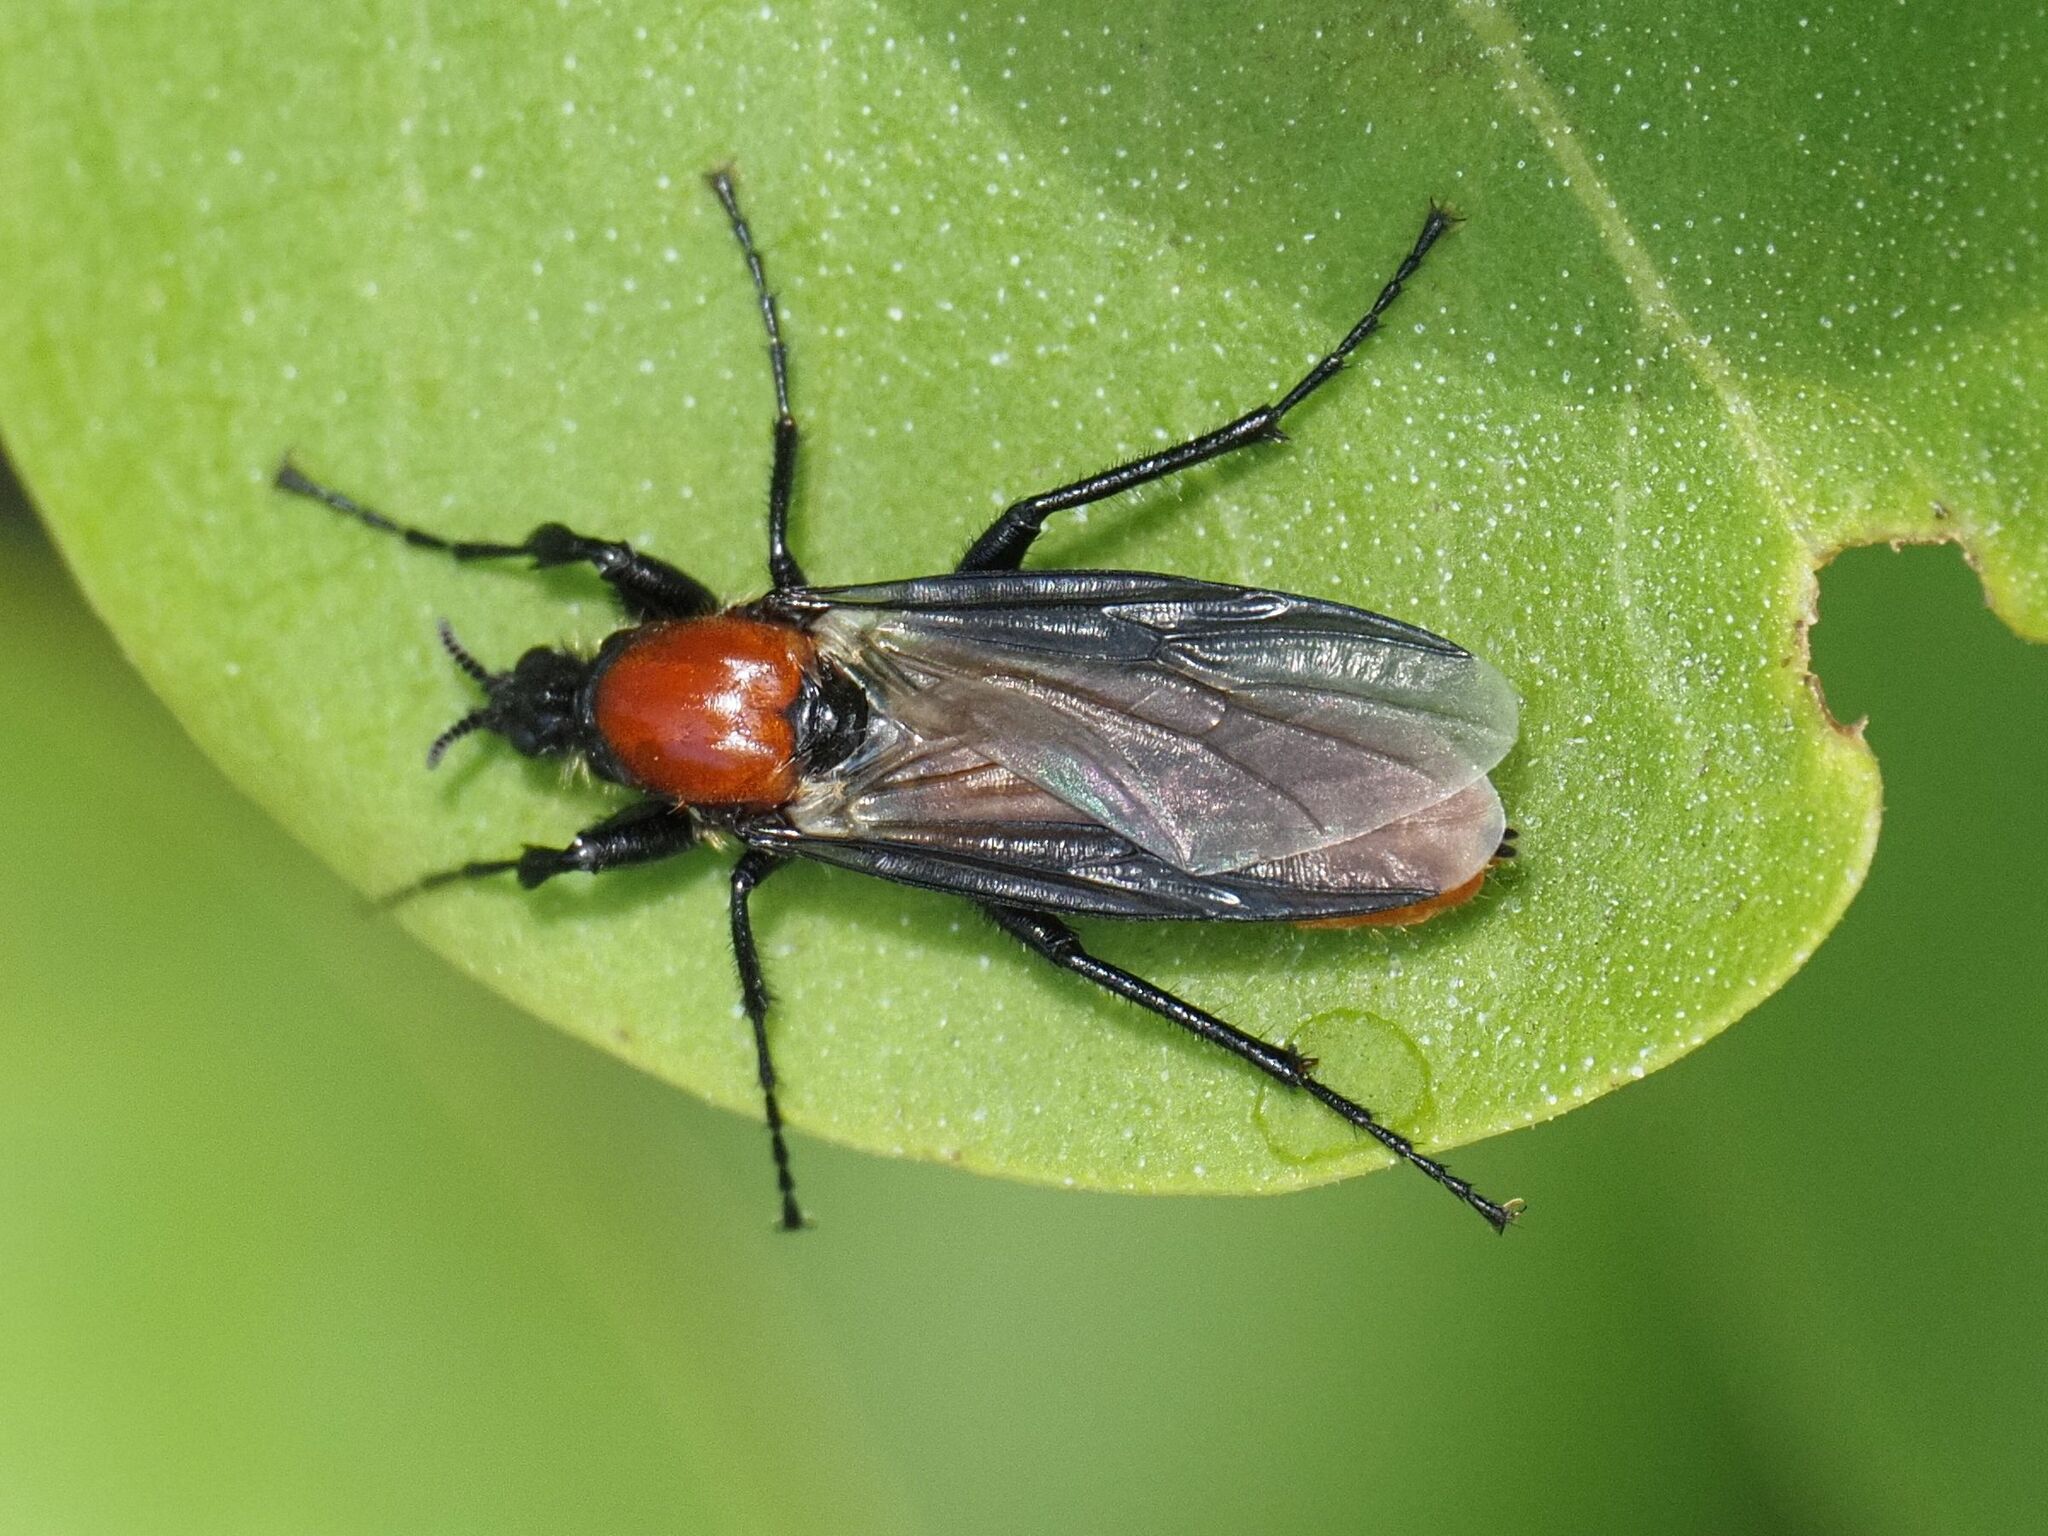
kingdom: Animalia
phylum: Arthropoda
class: Insecta
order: Diptera
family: Bibionidae
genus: Bibio
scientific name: Bibio hortulanus
